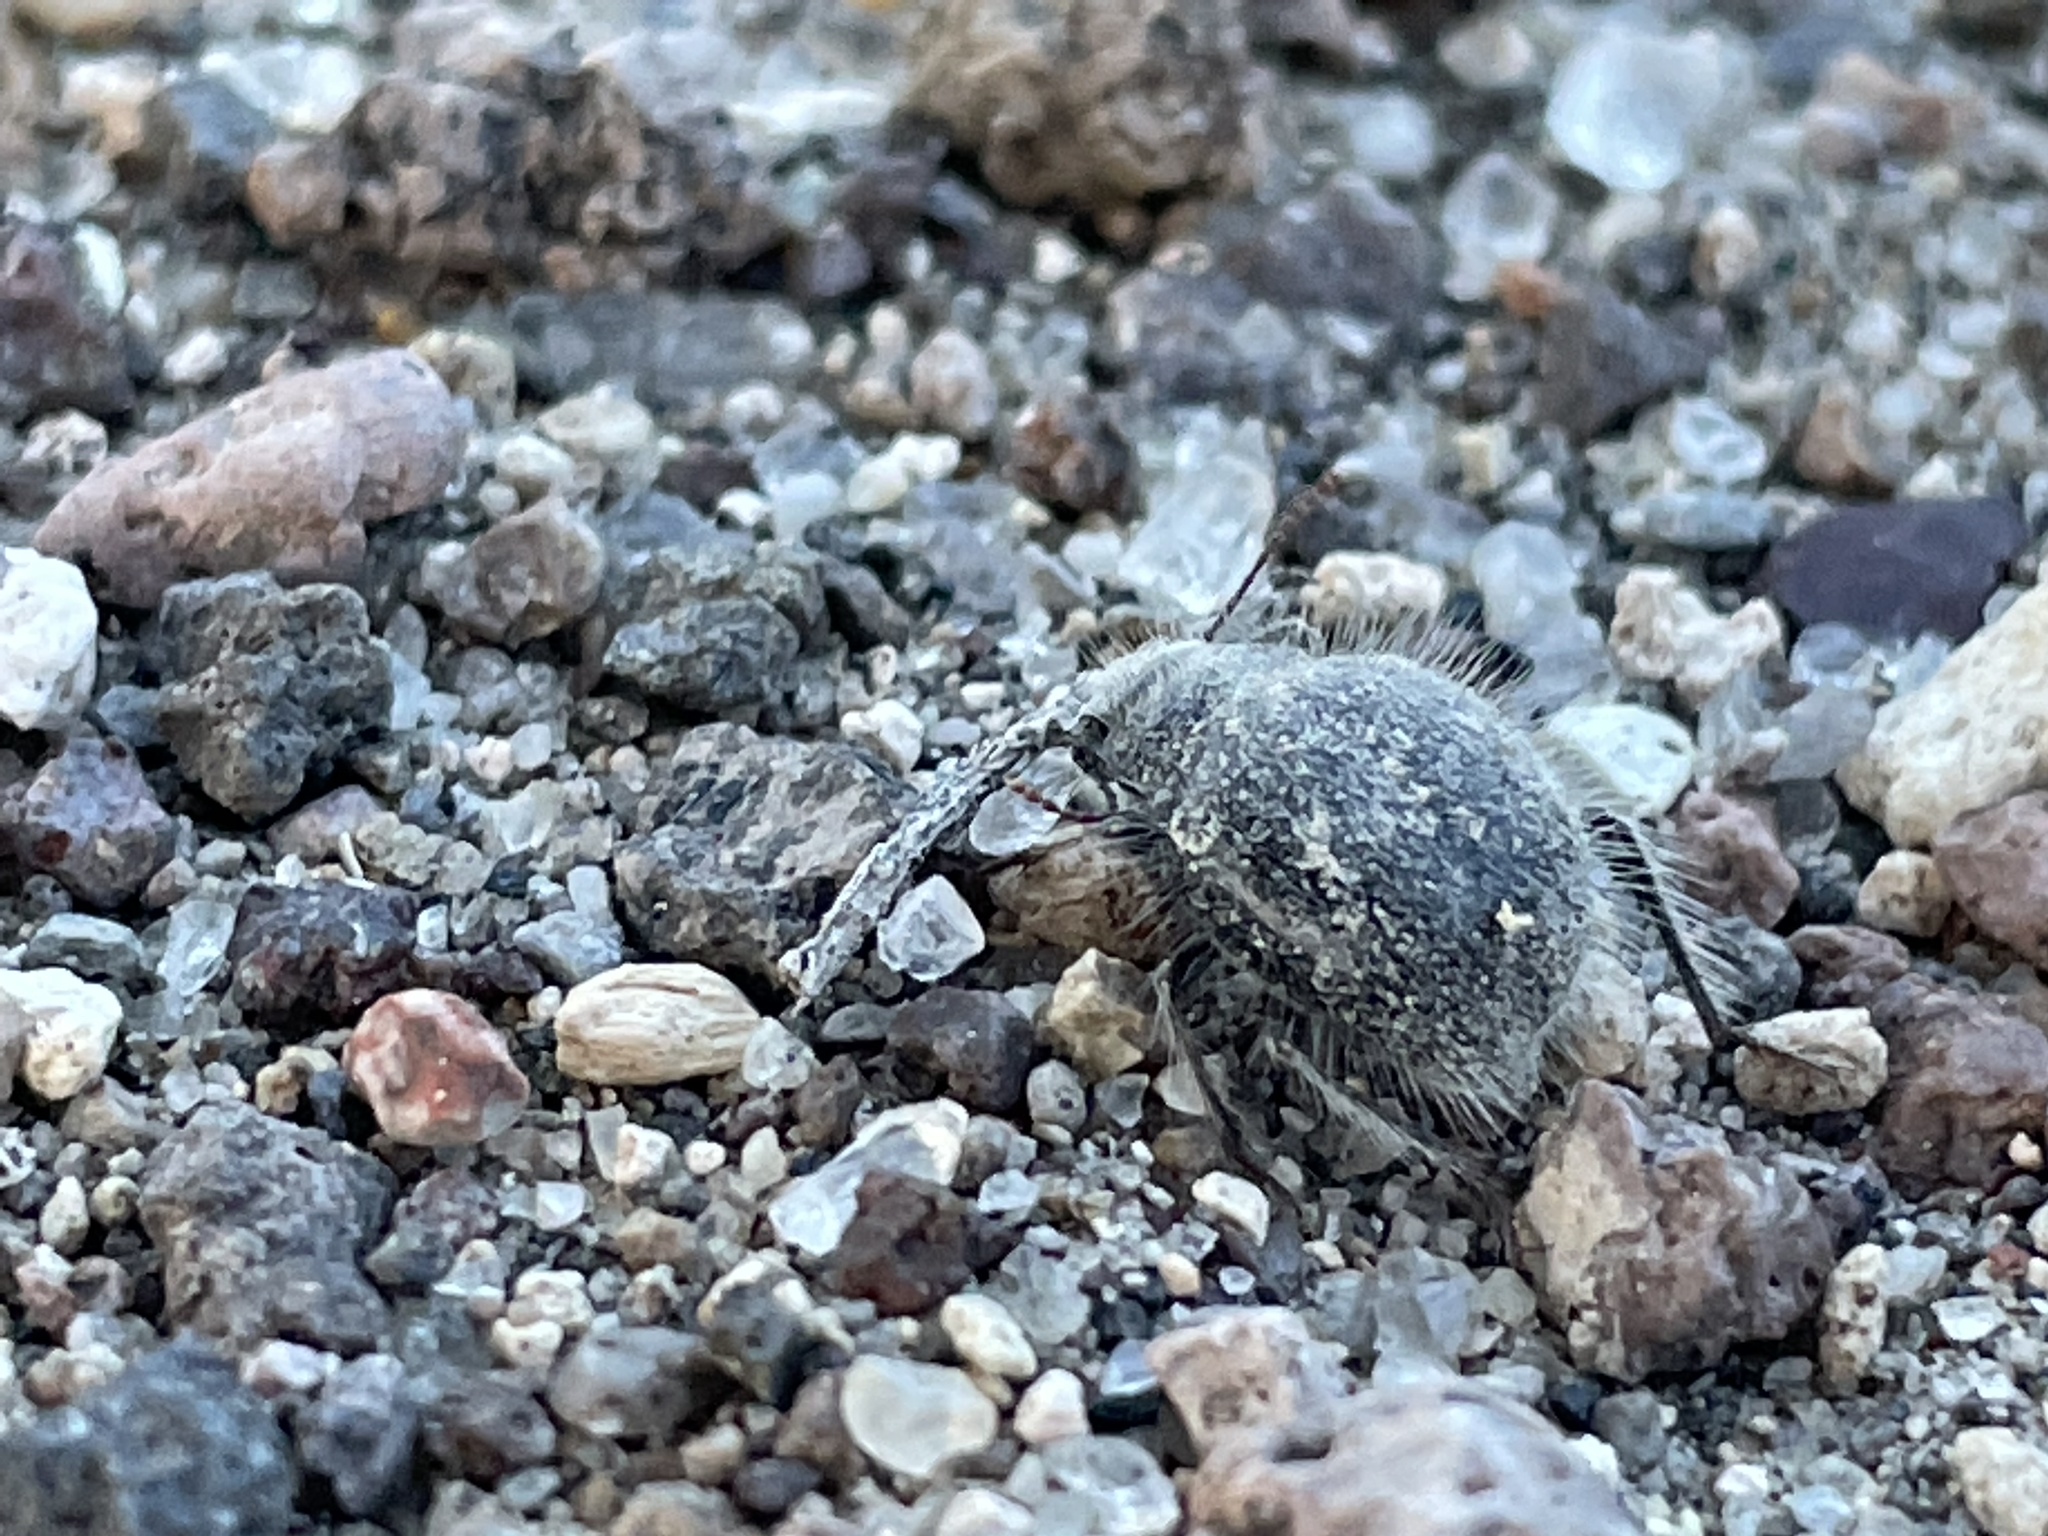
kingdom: Animalia
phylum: Arthropoda
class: Insecta
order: Coleoptera
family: Tenebrionidae
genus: Edrotes
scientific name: Edrotes ventricosus
